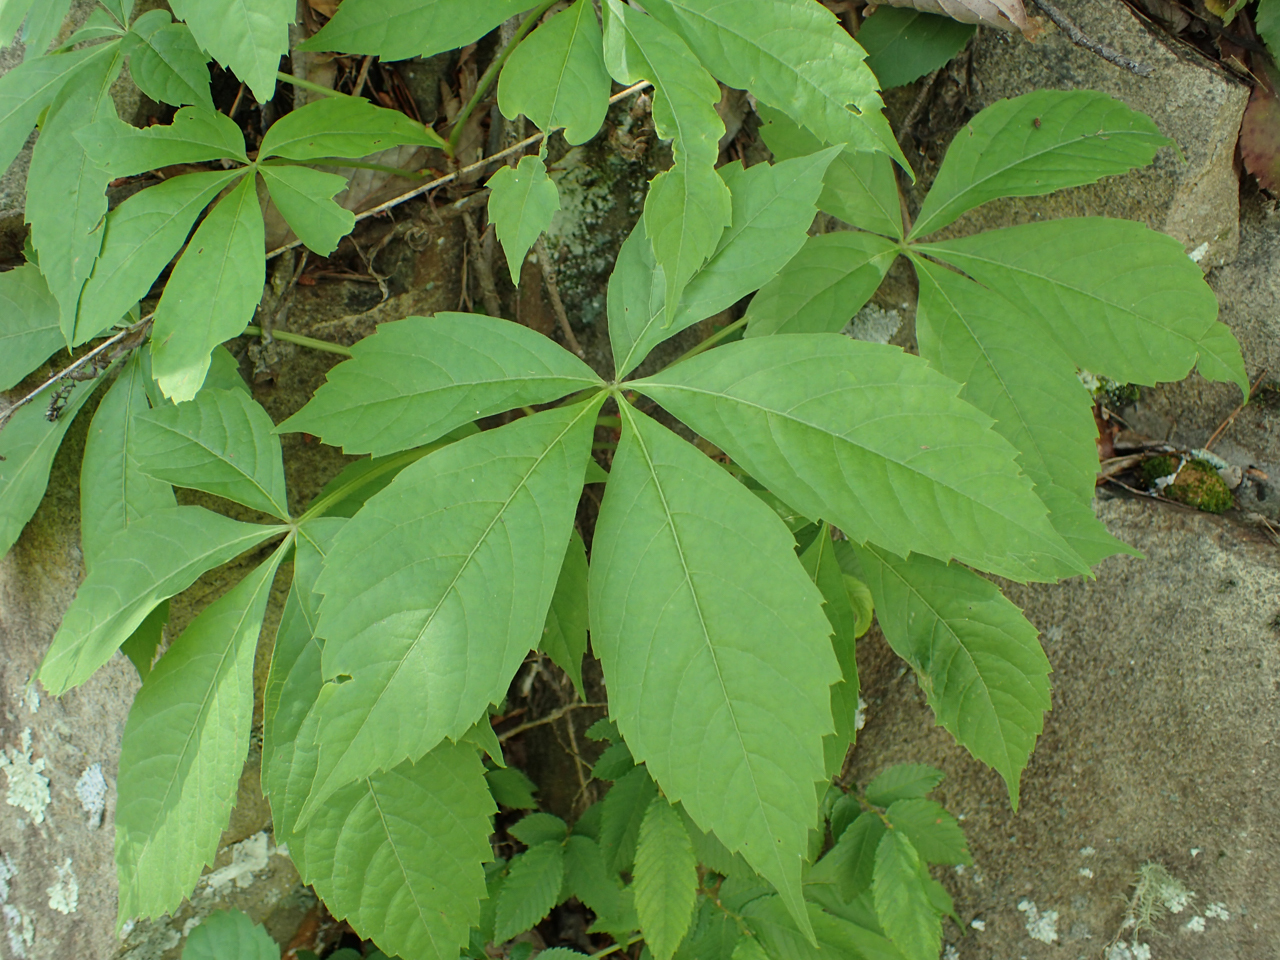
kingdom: Plantae
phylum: Tracheophyta
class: Magnoliopsida
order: Vitales
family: Vitaceae
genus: Parthenocissus
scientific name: Parthenocissus quinquefolia
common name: Virginia-creeper
